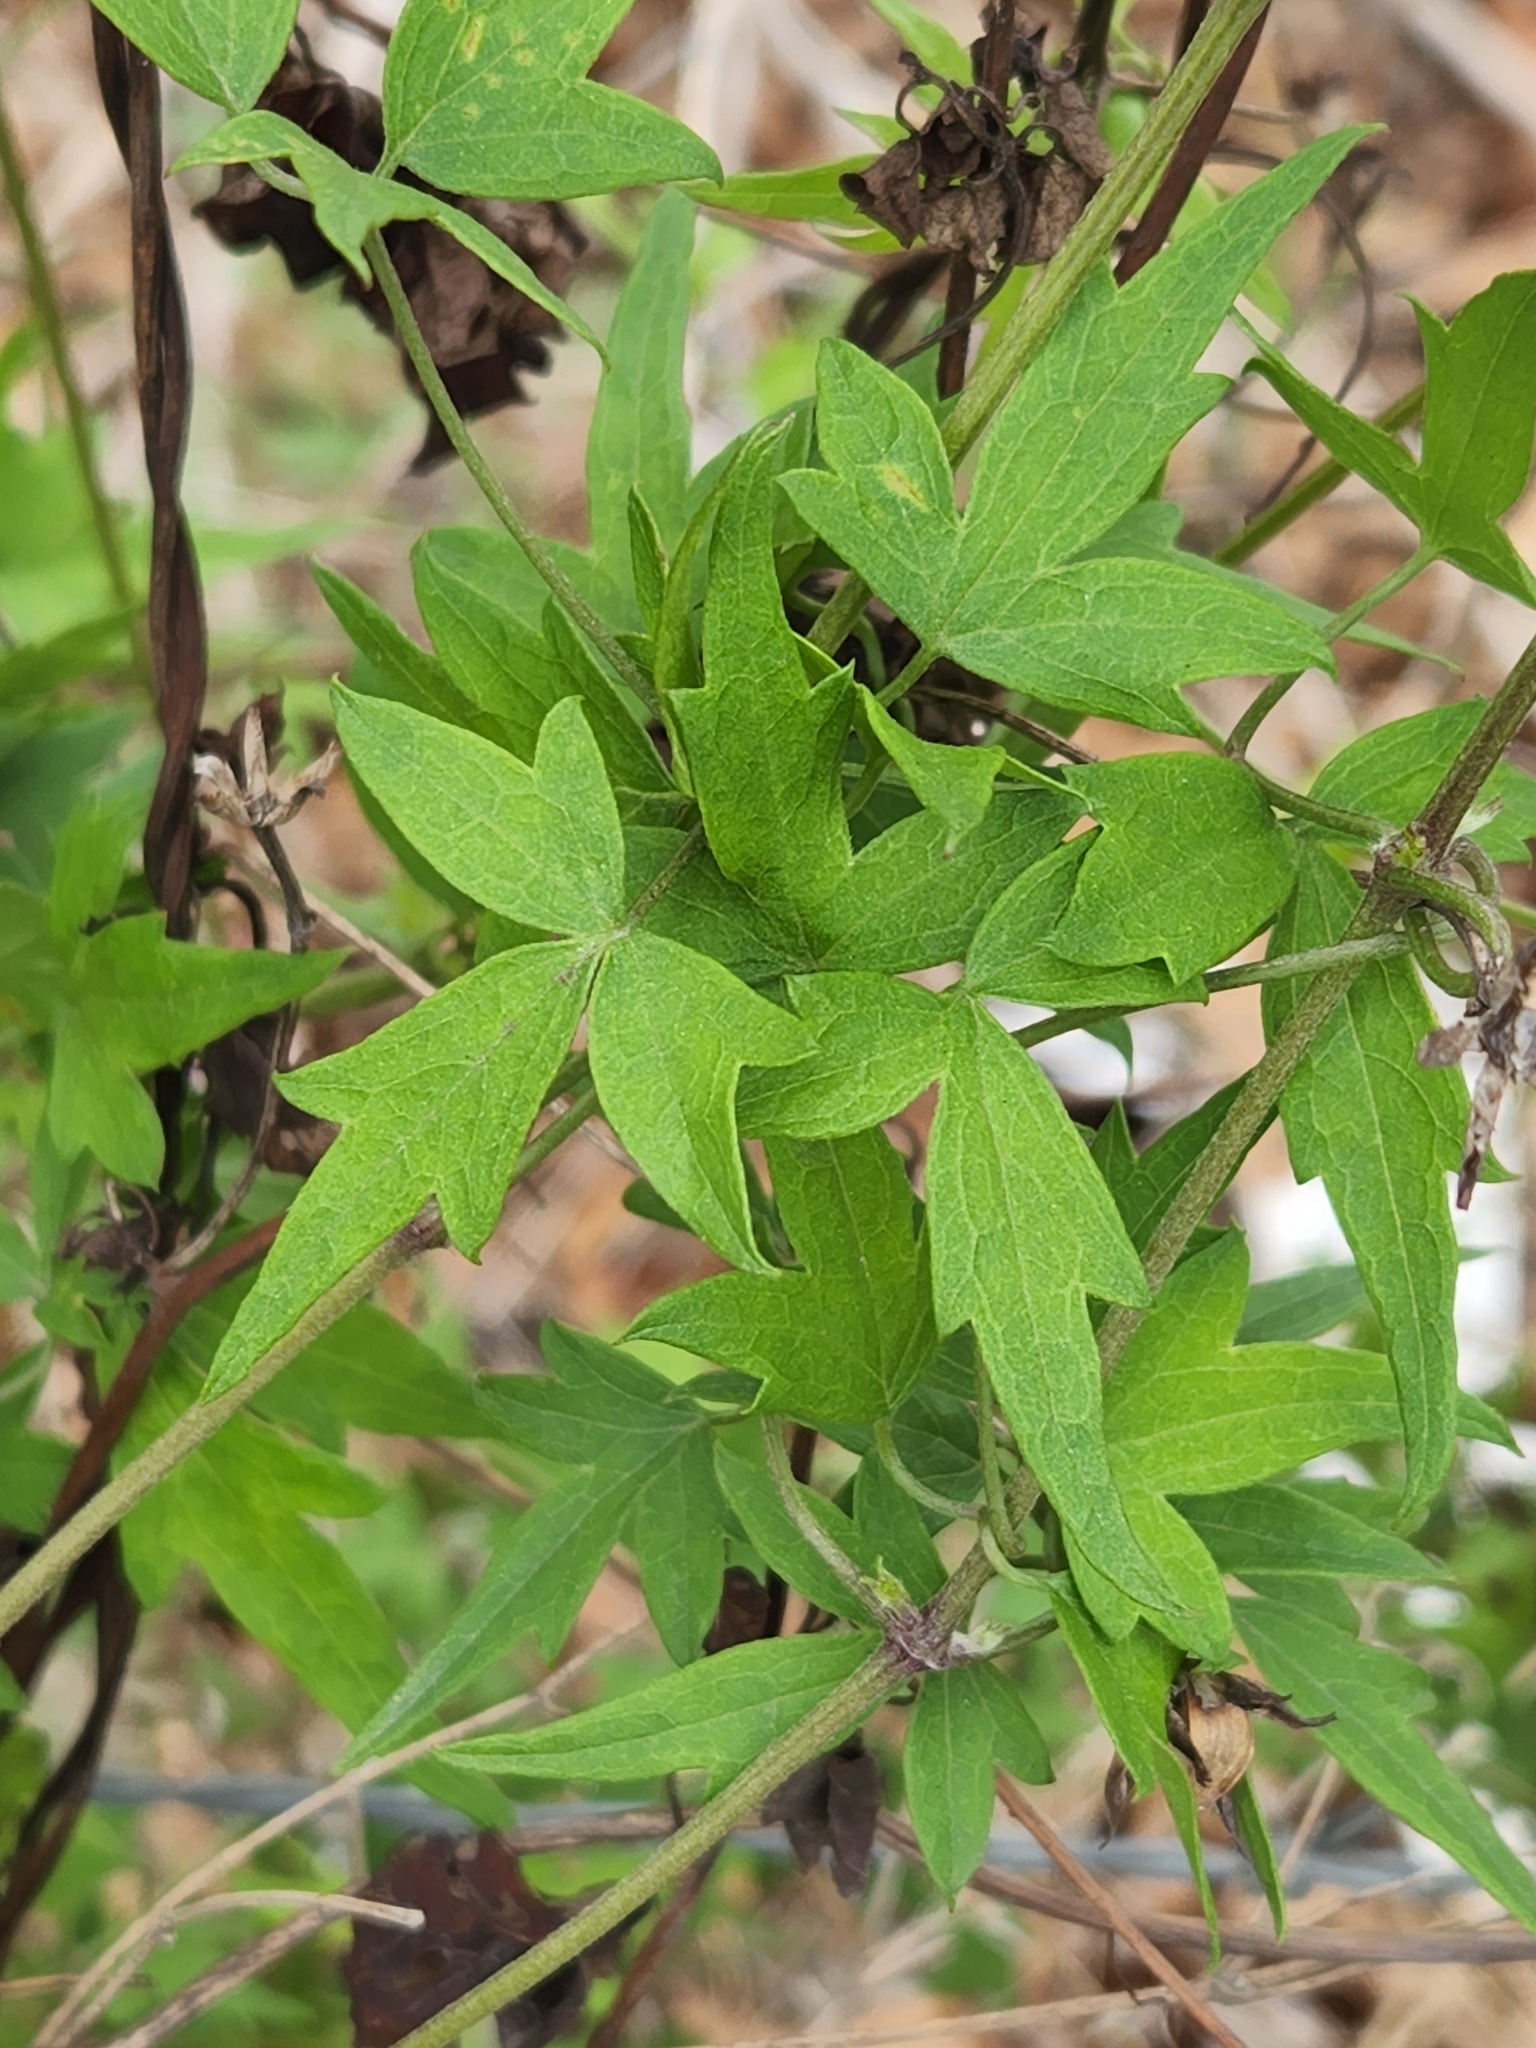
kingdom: Plantae
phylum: Tracheophyta
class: Magnoliopsida
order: Ranunculales
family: Ranunculaceae
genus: Clematis
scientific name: Clematis drummondii
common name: Texas virgin's bower
